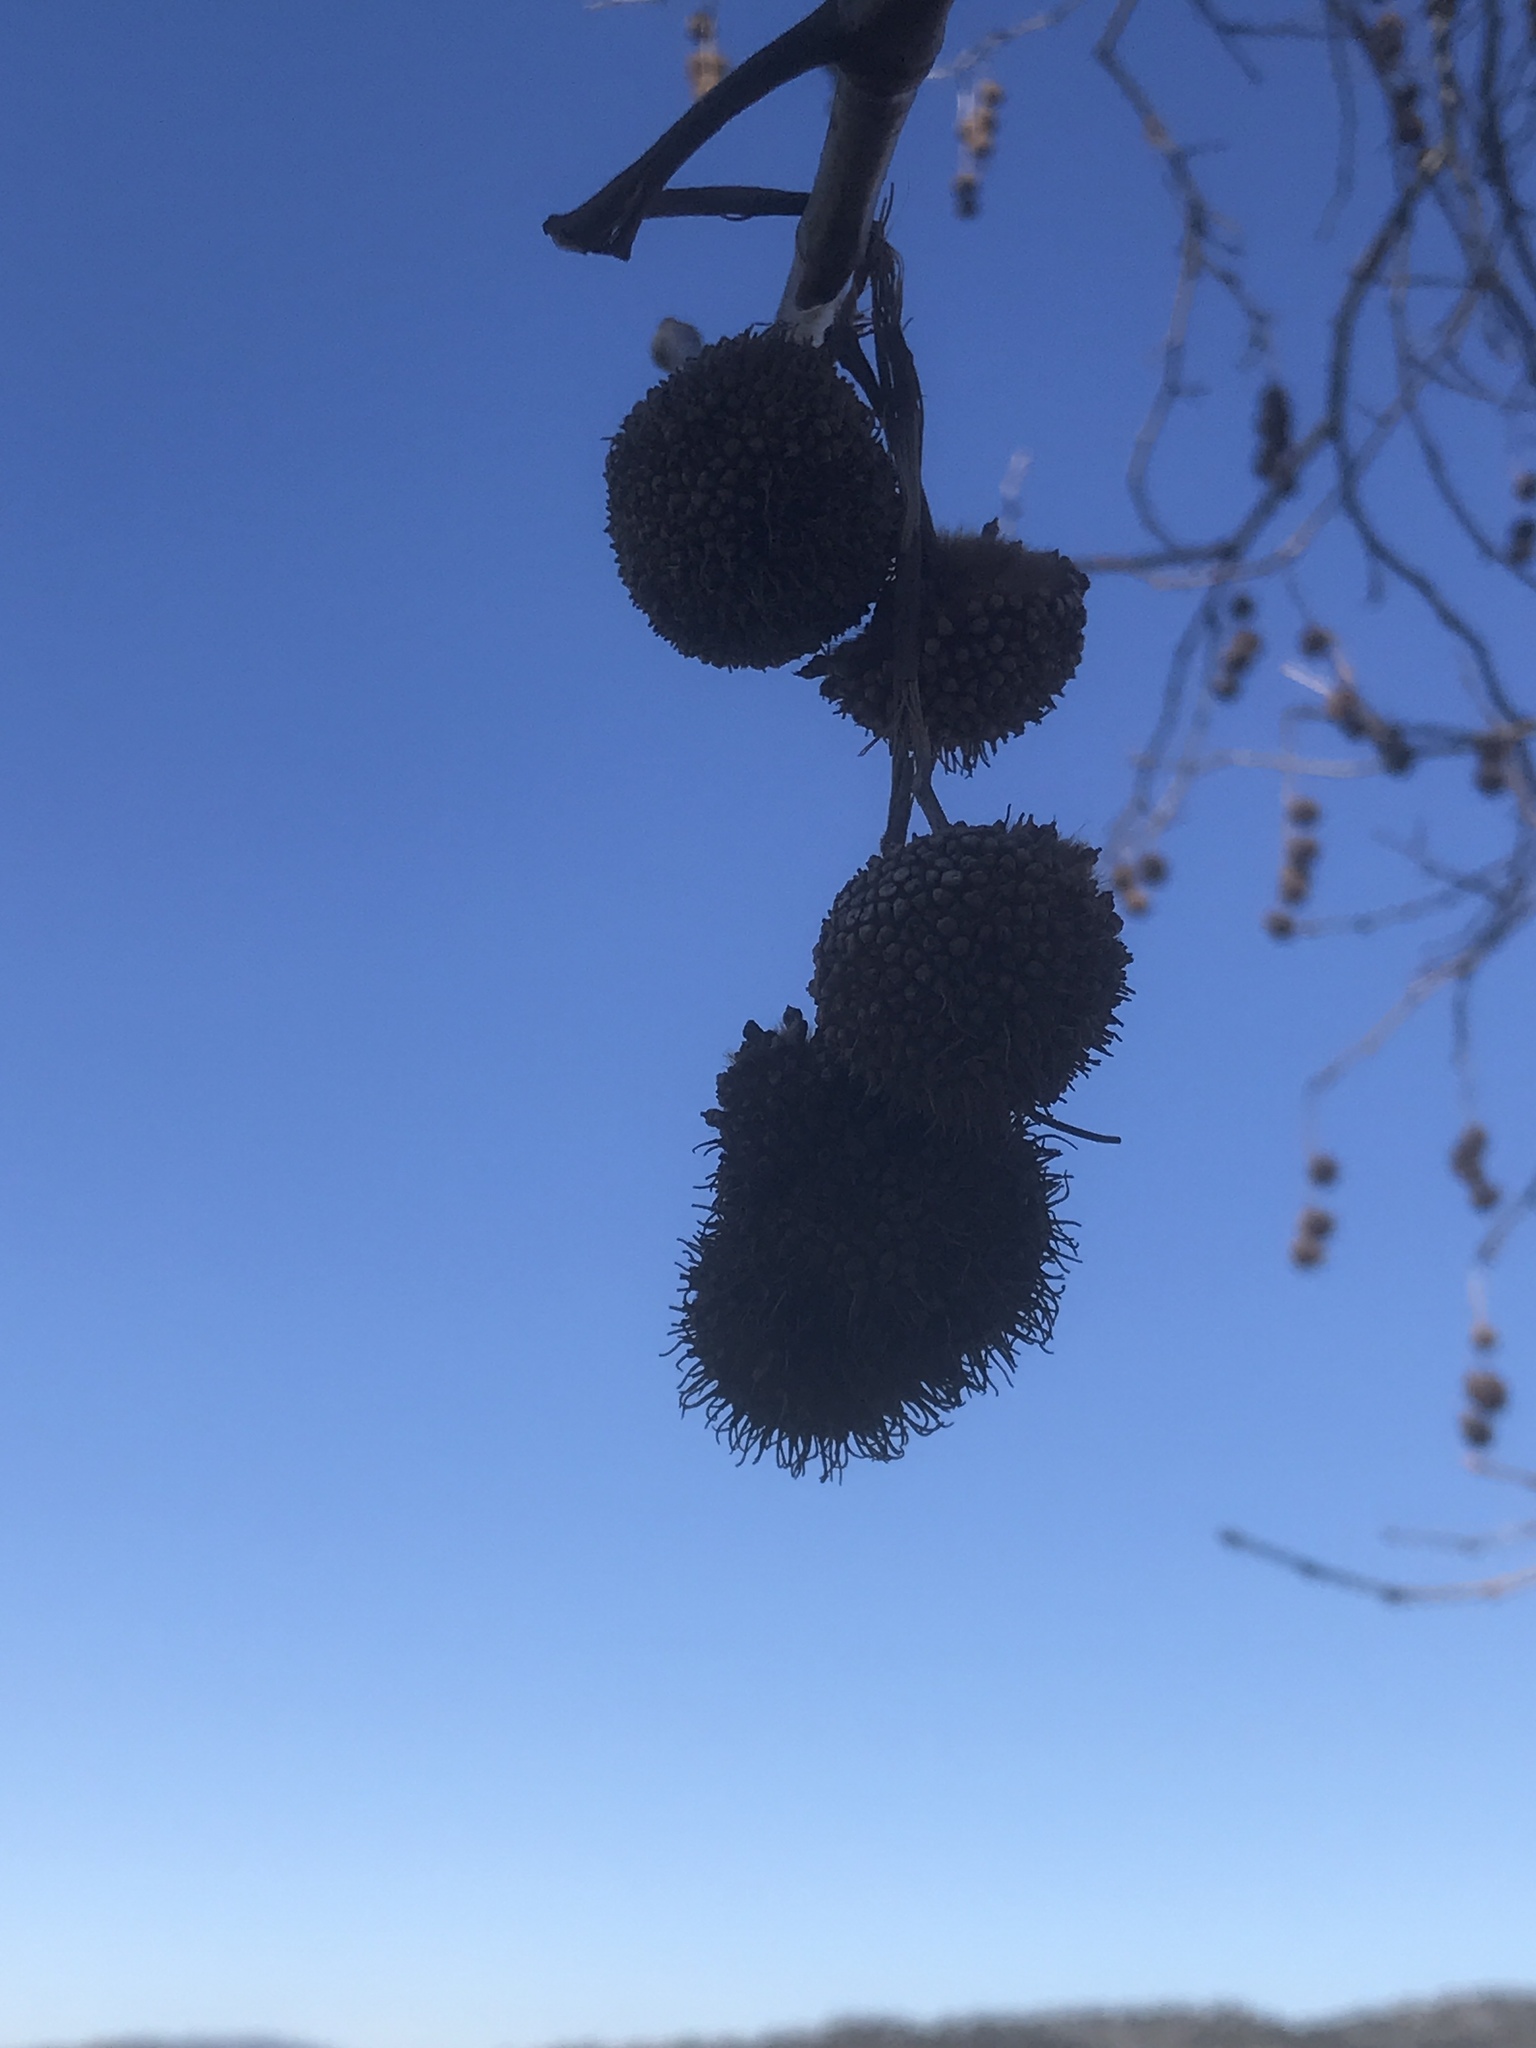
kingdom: Plantae
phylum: Tracheophyta
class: Magnoliopsida
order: Proteales
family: Platanaceae
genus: Platanus
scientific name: Platanus racemosa
